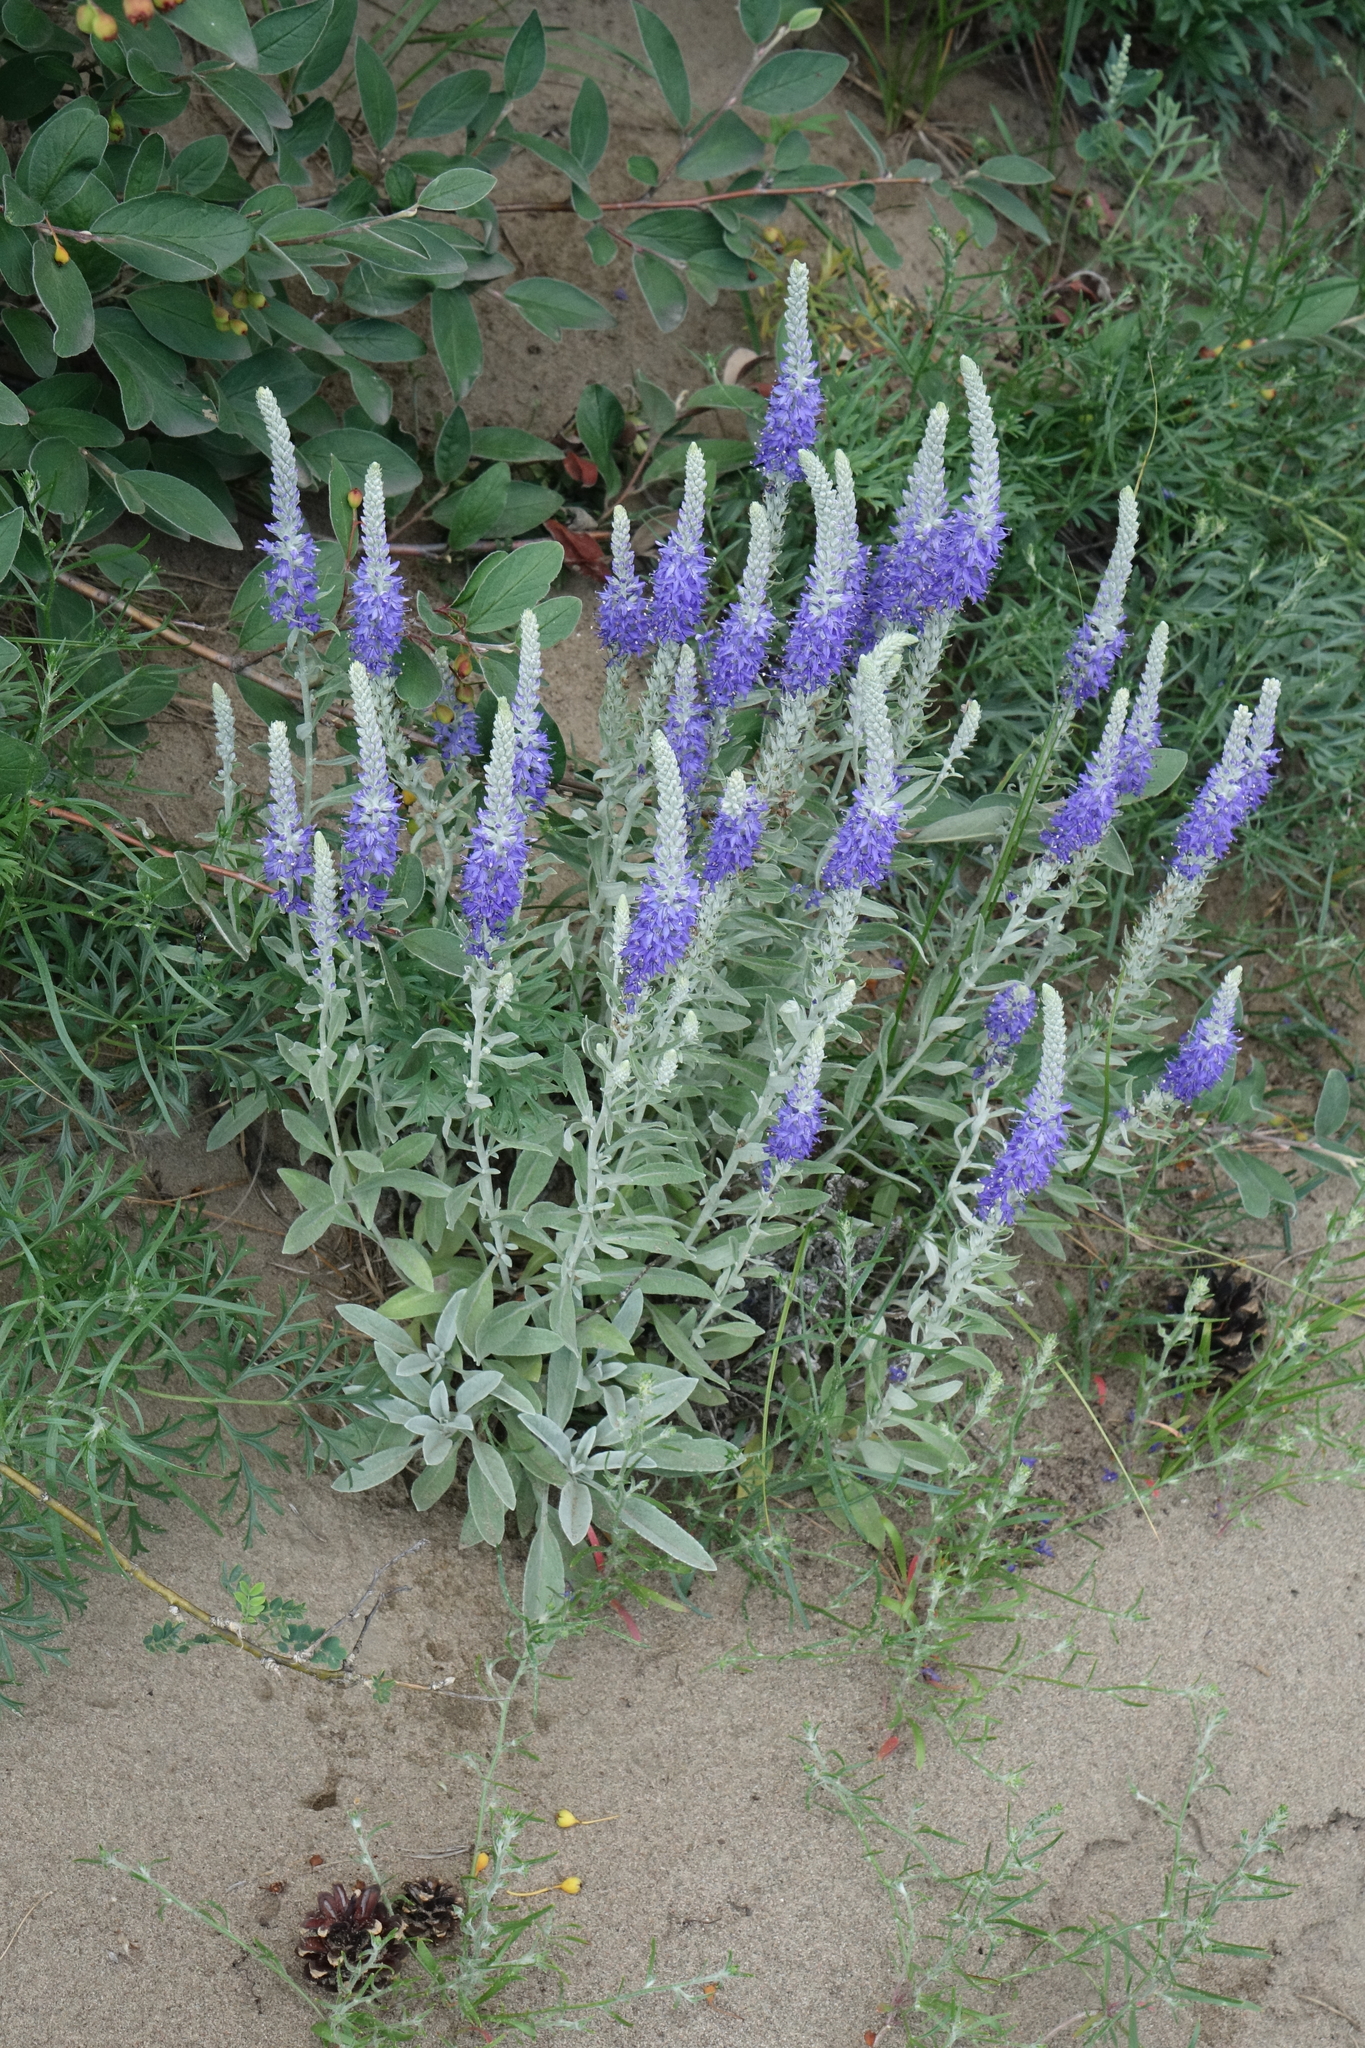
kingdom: Plantae
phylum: Tracheophyta
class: Magnoliopsida
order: Lamiales
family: Plantaginaceae
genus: Veronica
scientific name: Veronica incana
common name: Silver speedwell
